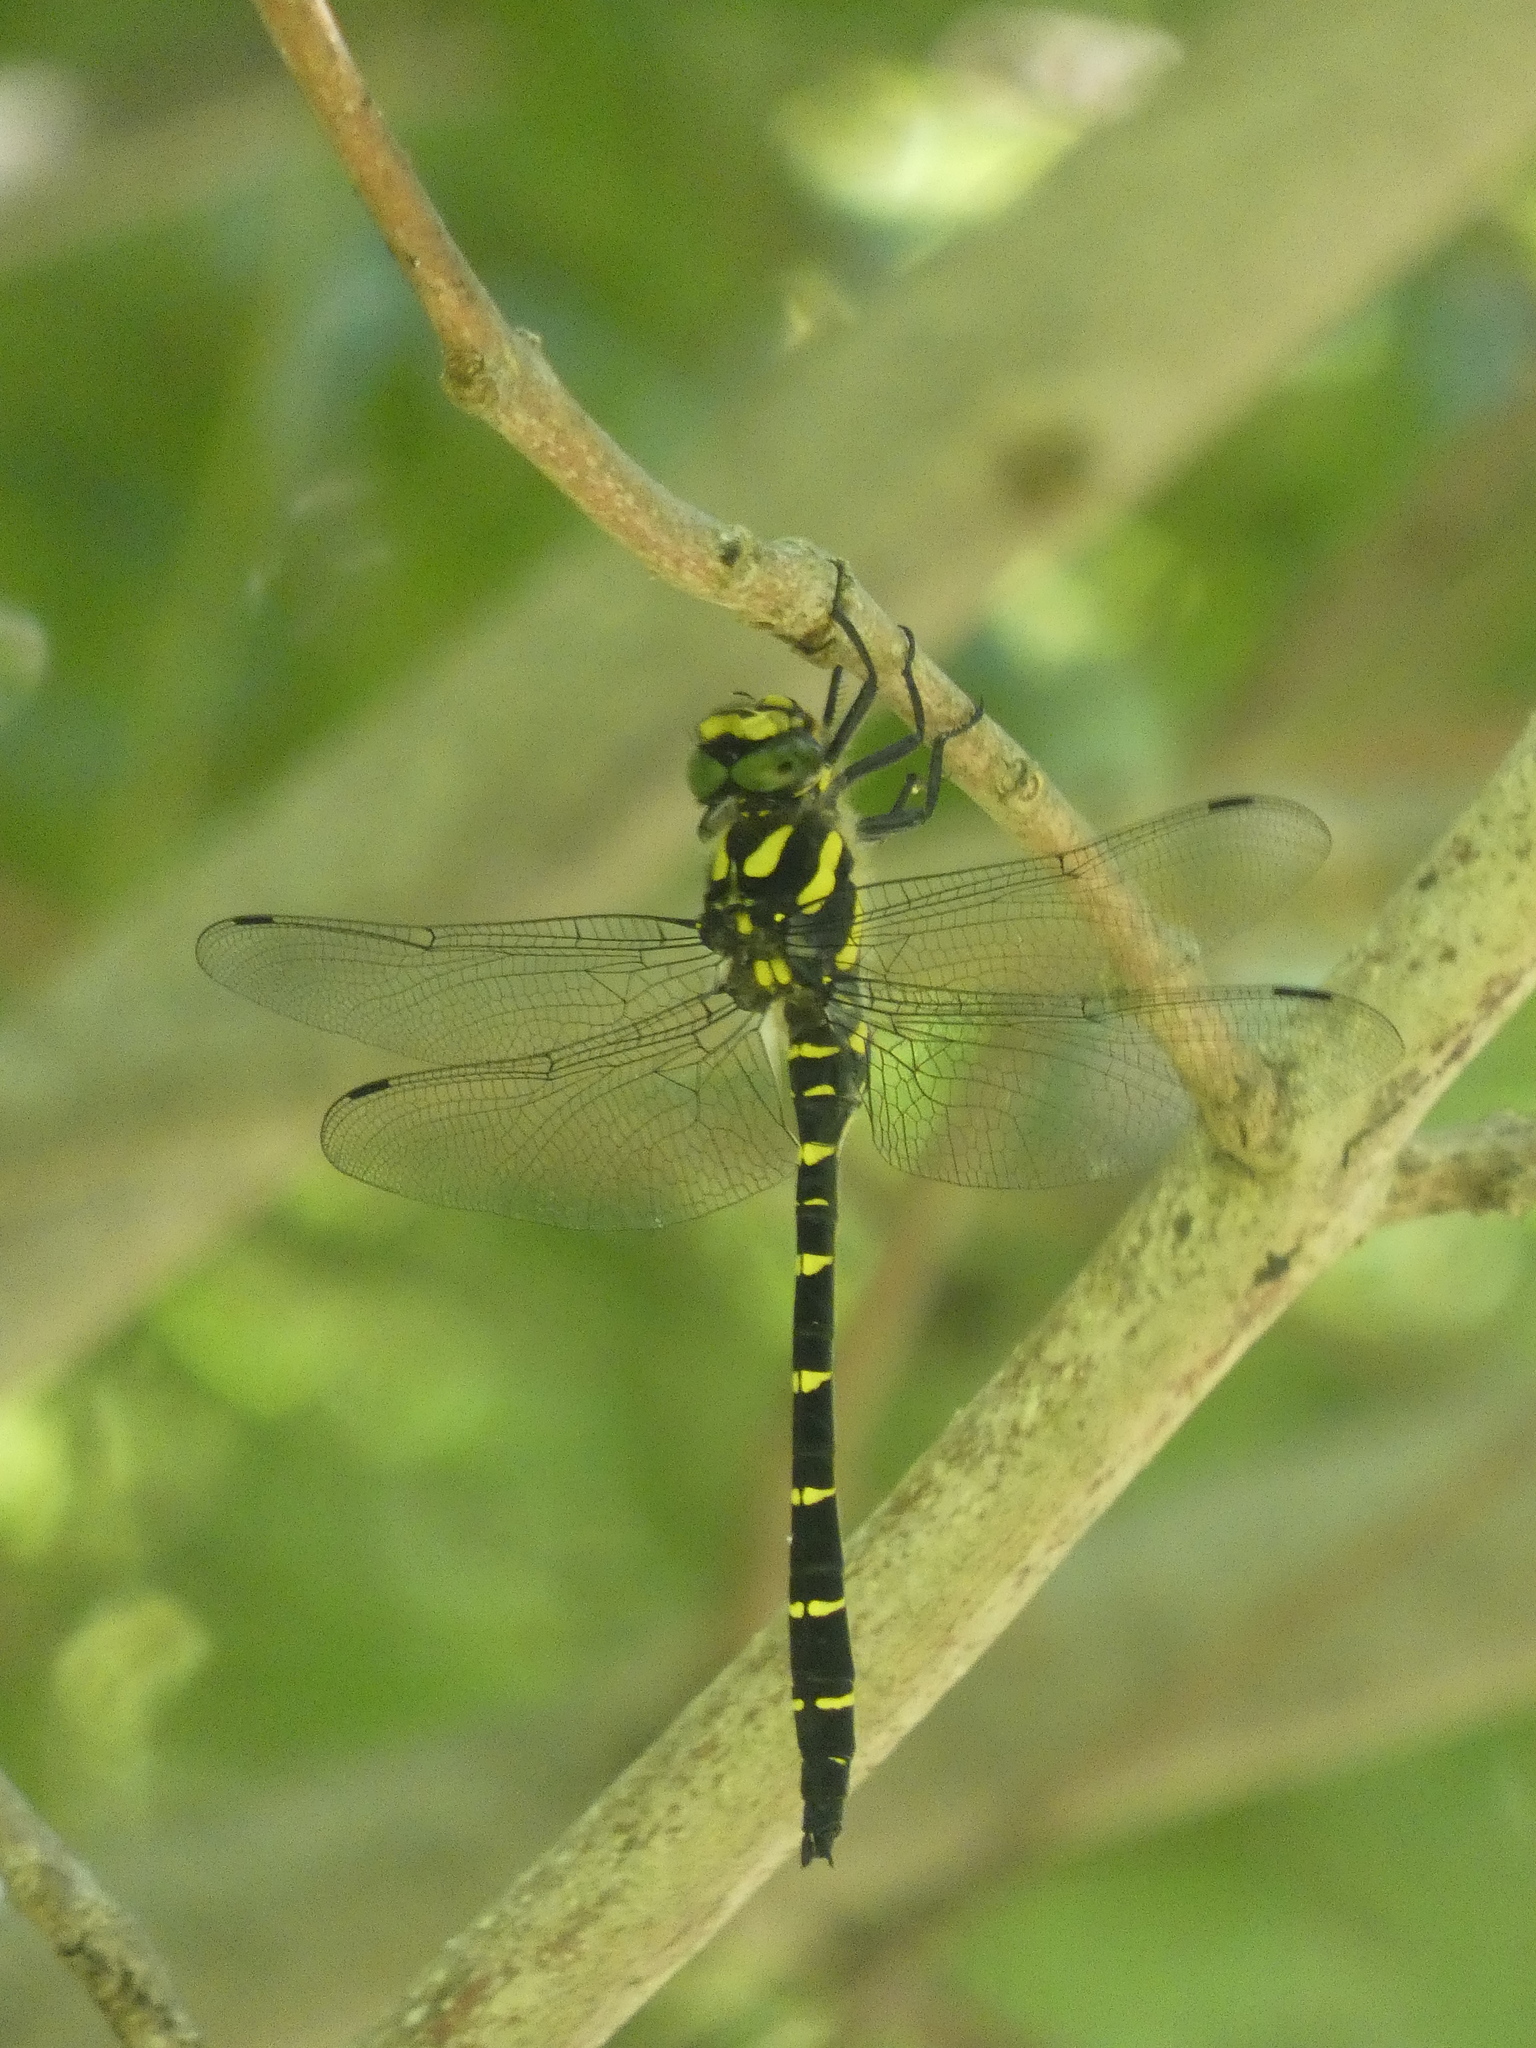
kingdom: Animalia
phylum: Arthropoda
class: Insecta
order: Odonata
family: Cordulegastridae
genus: Cordulegaster
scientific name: Cordulegaster bidentata
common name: Sombre goldenring
